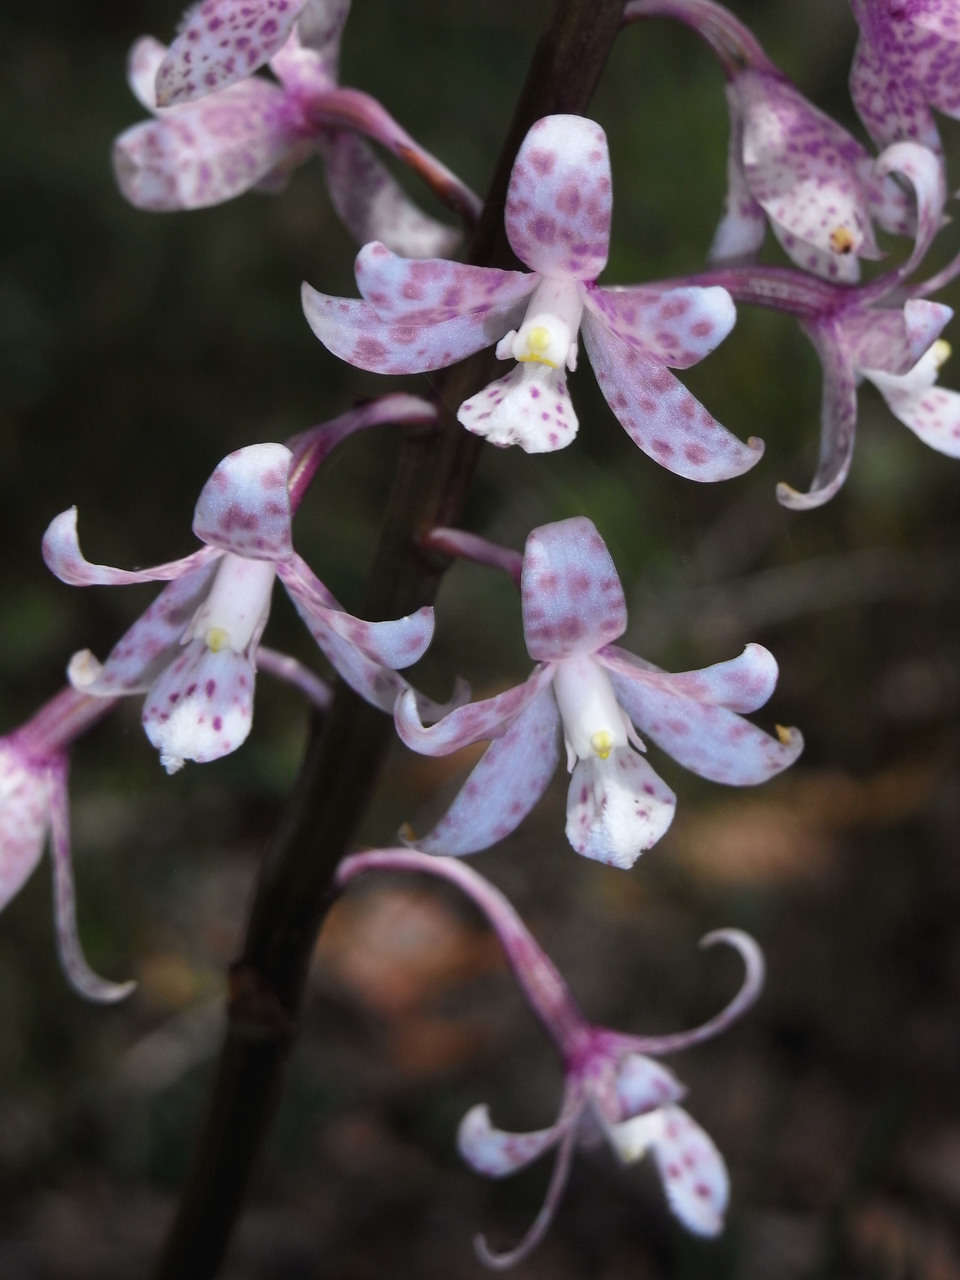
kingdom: Plantae
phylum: Tracheophyta
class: Liliopsida
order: Asparagales
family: Orchidaceae
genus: Dipodium
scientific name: Dipodium pardalinum
